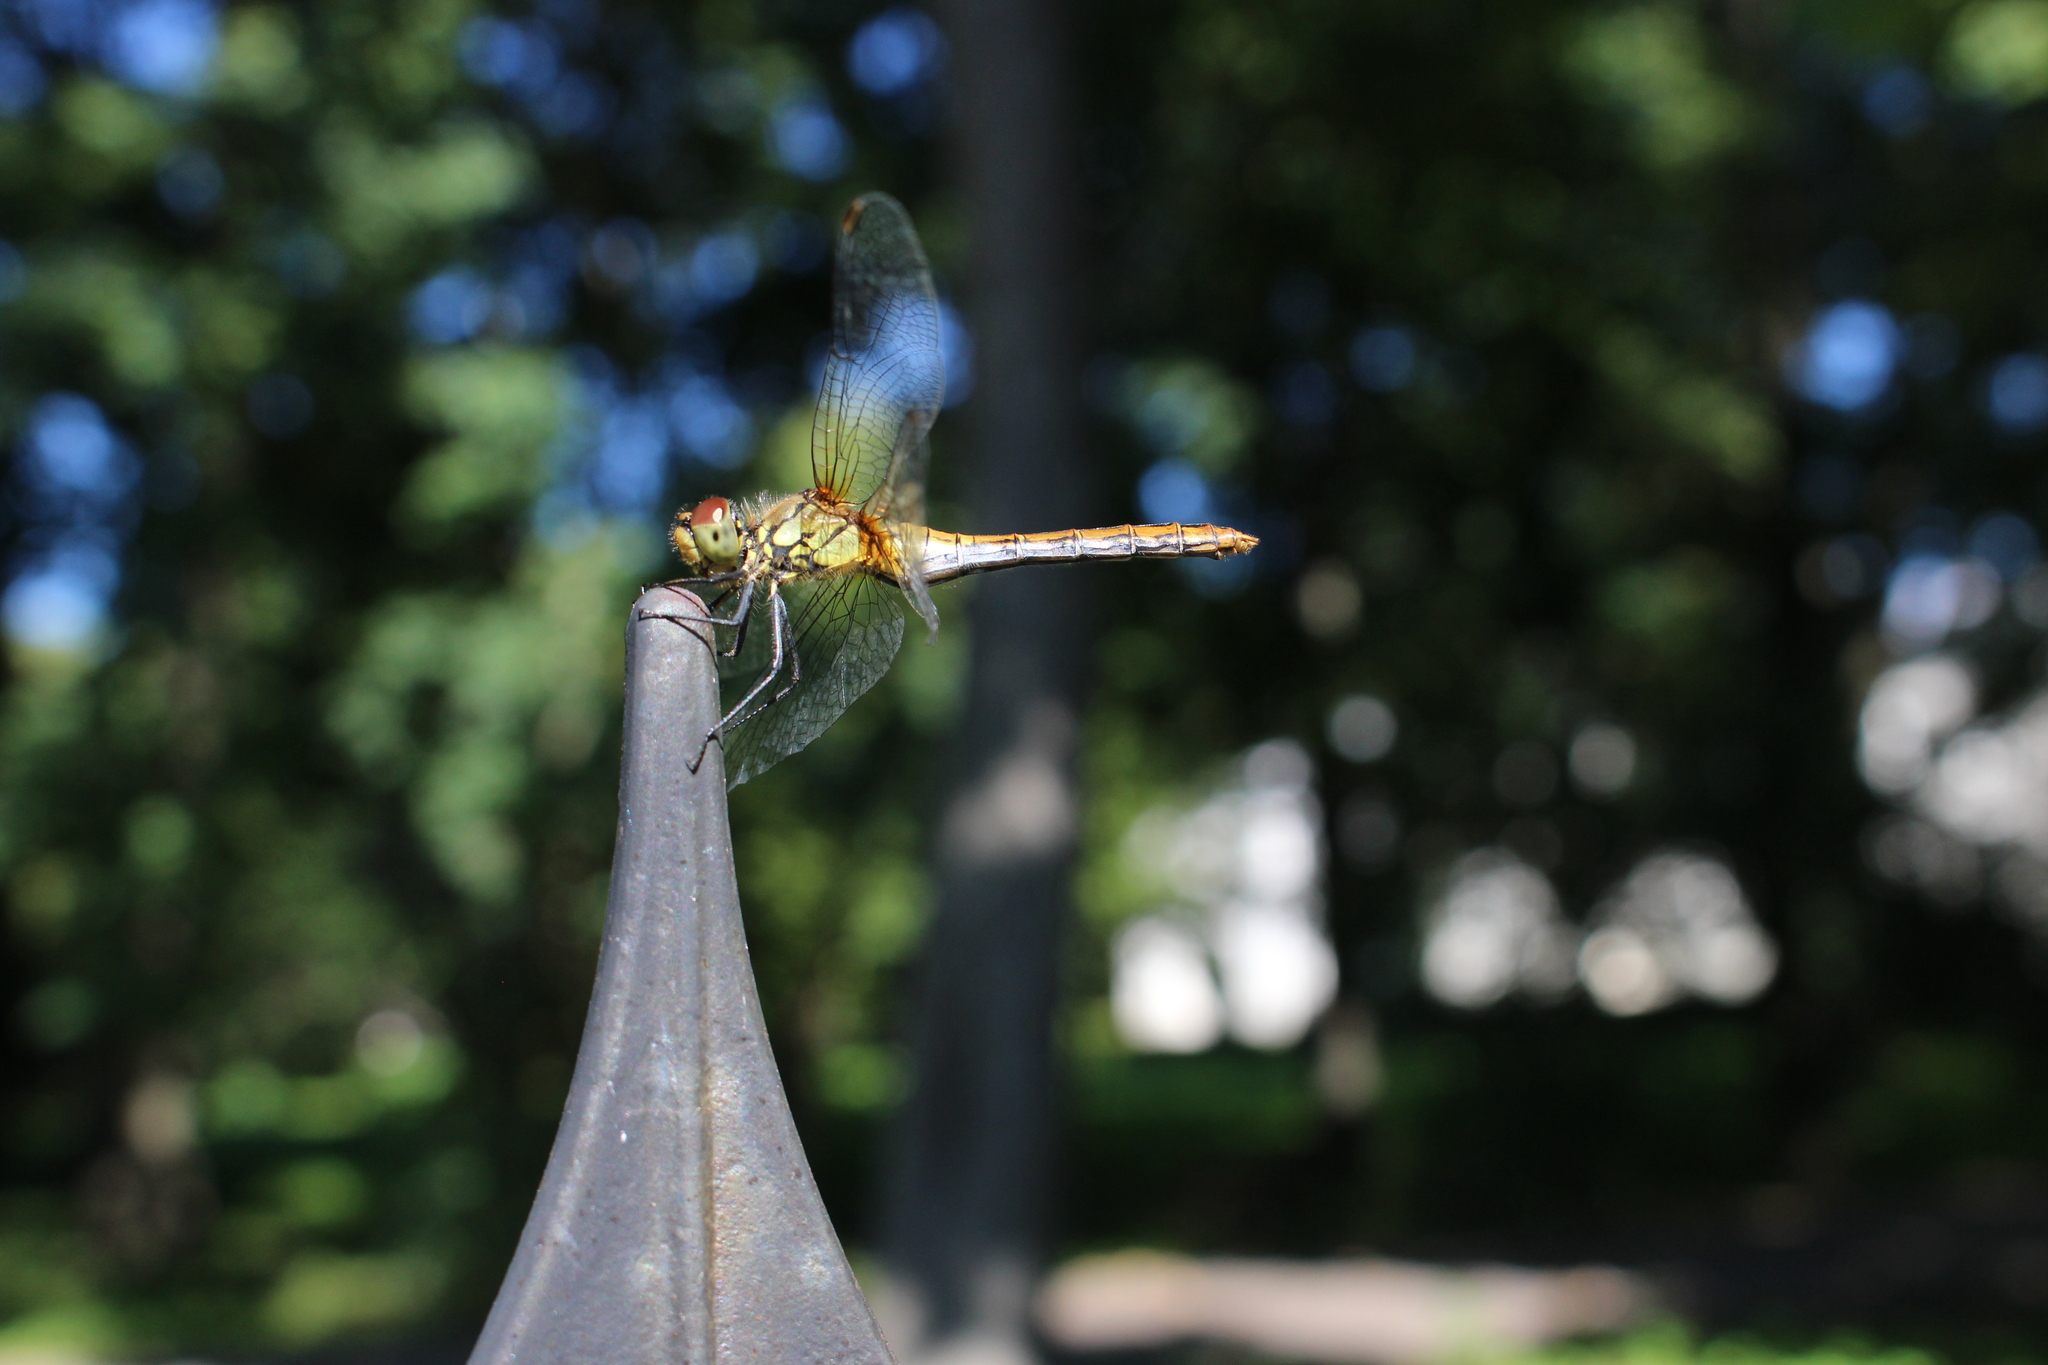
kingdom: Animalia
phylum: Arthropoda
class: Insecta
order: Odonata
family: Libellulidae
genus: Sympetrum
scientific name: Sympetrum sanguineum
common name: Ruddy darter
